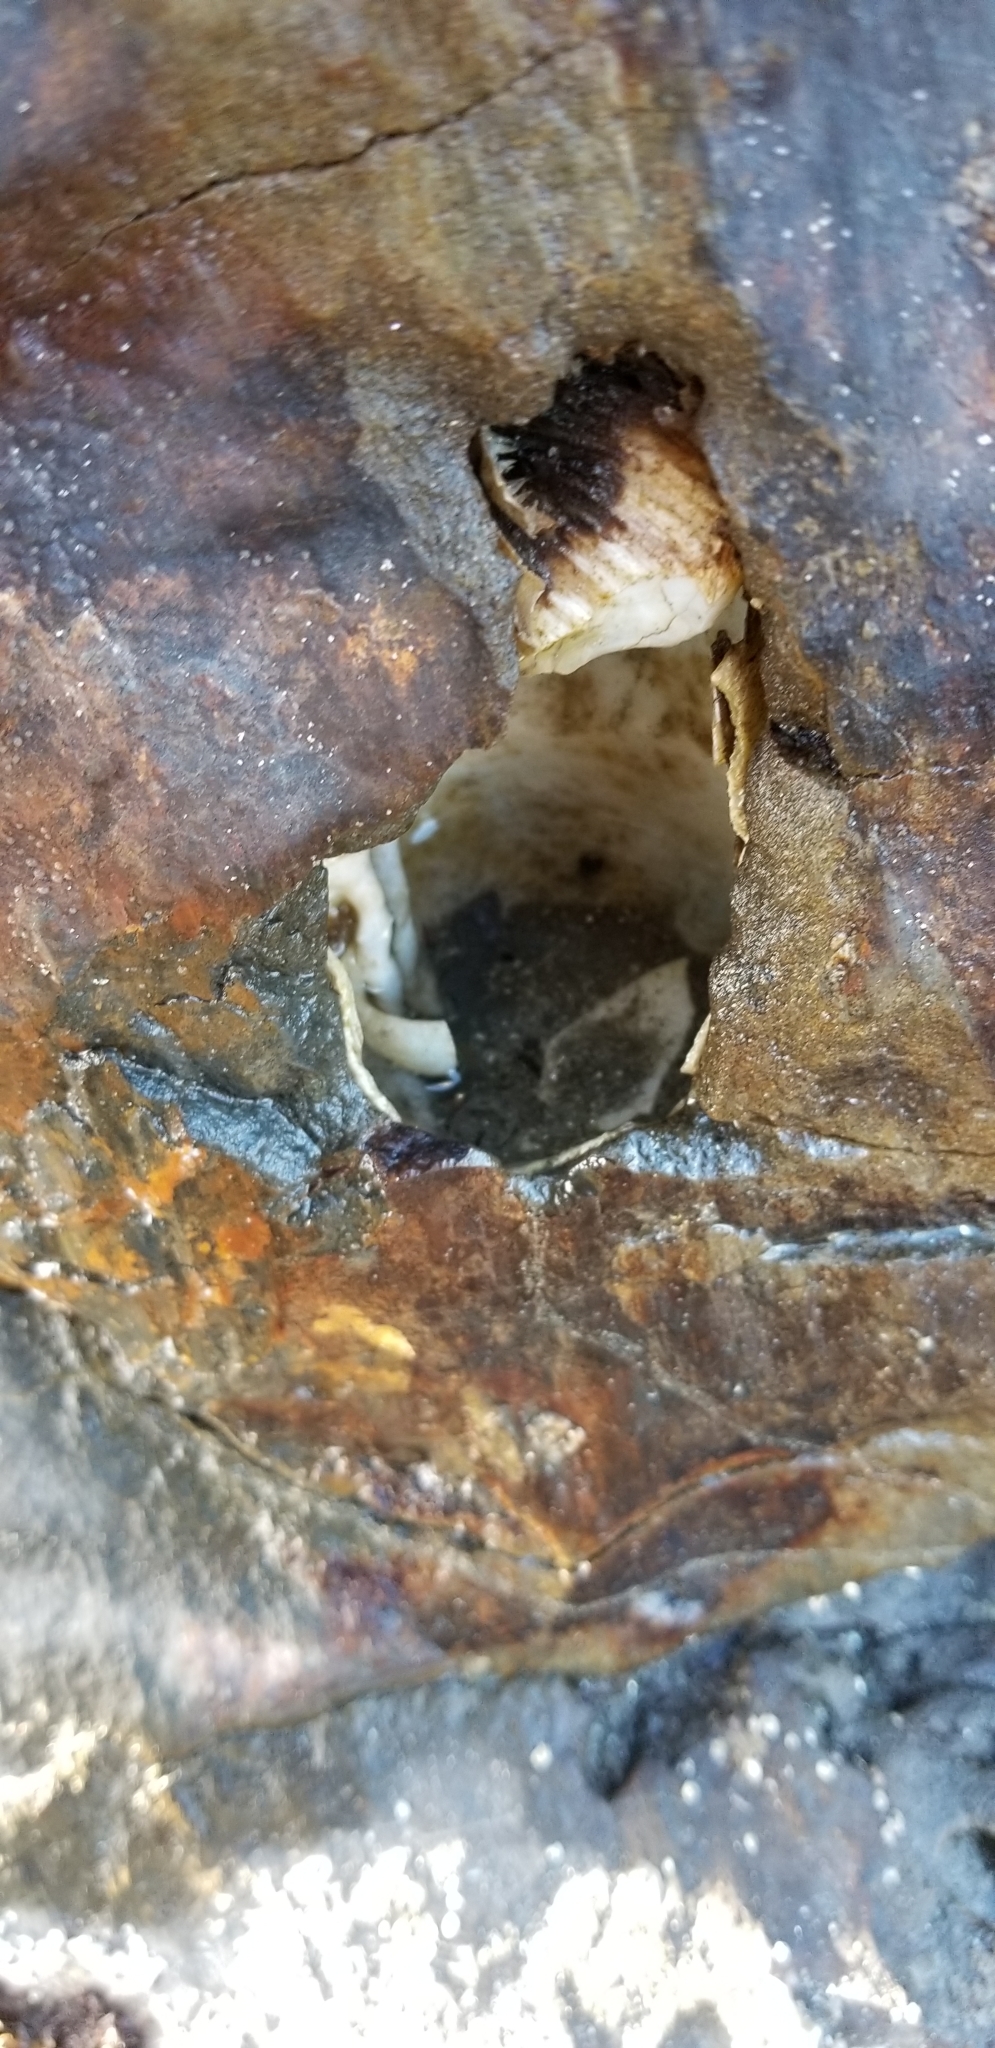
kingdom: Animalia
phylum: Mollusca
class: Bivalvia
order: Myida
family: Pholadidae
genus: Parapholas
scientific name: Parapholas californica
